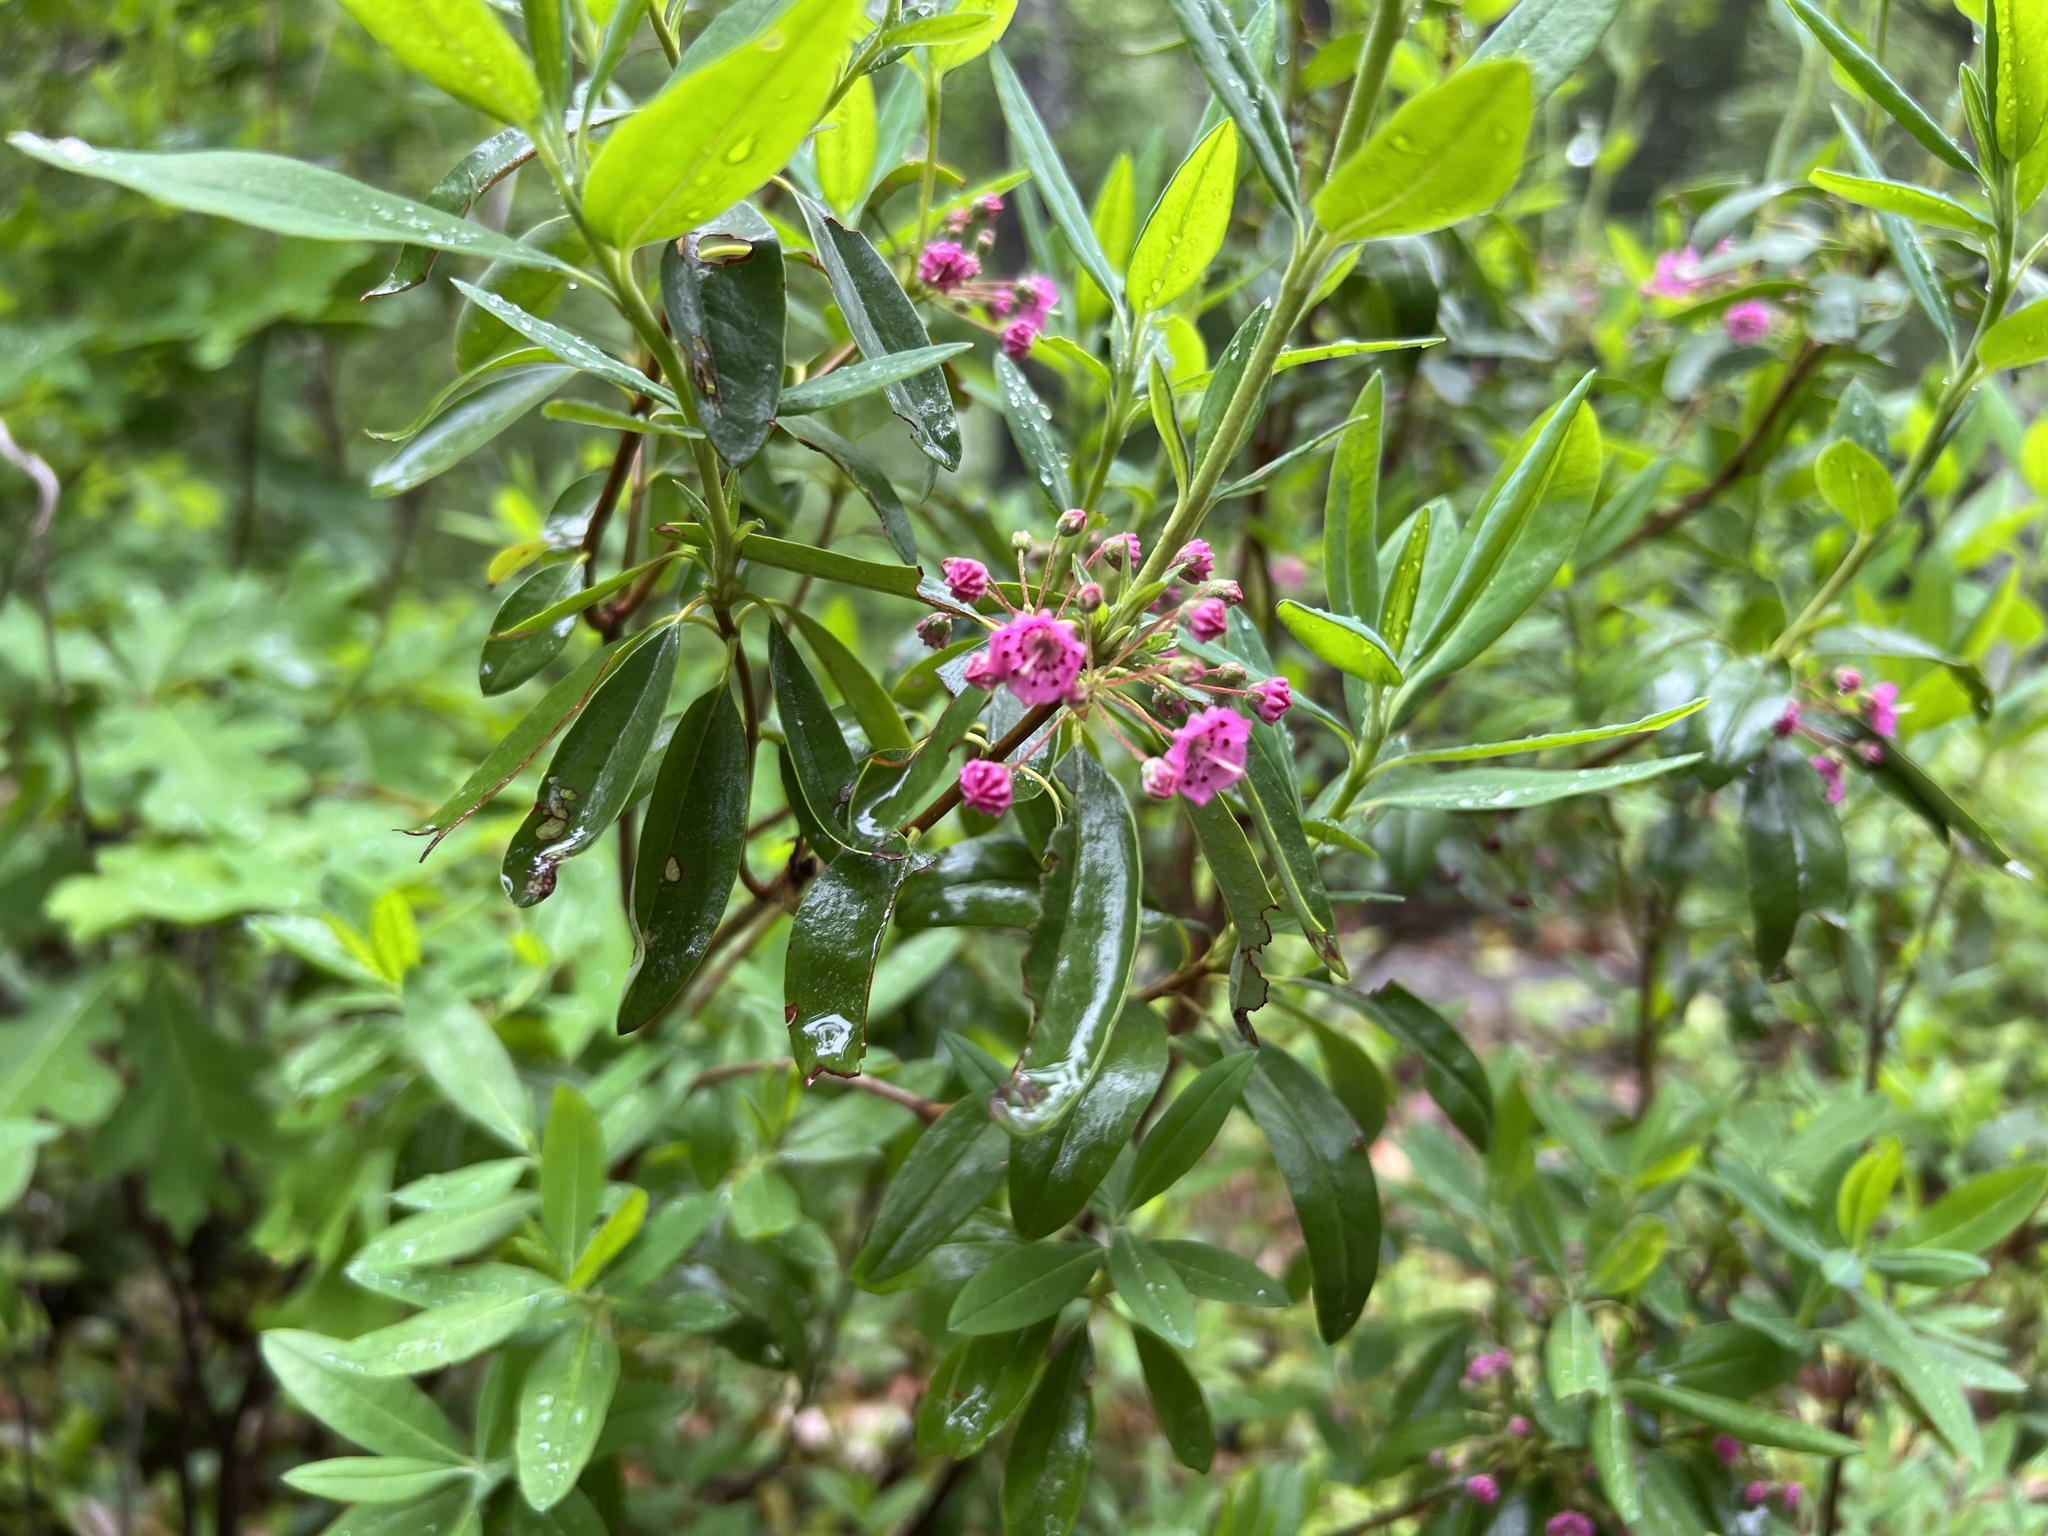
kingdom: Plantae
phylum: Tracheophyta
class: Magnoliopsida
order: Ericales
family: Ericaceae
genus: Kalmia
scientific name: Kalmia angustifolia
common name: Sheep-laurel
